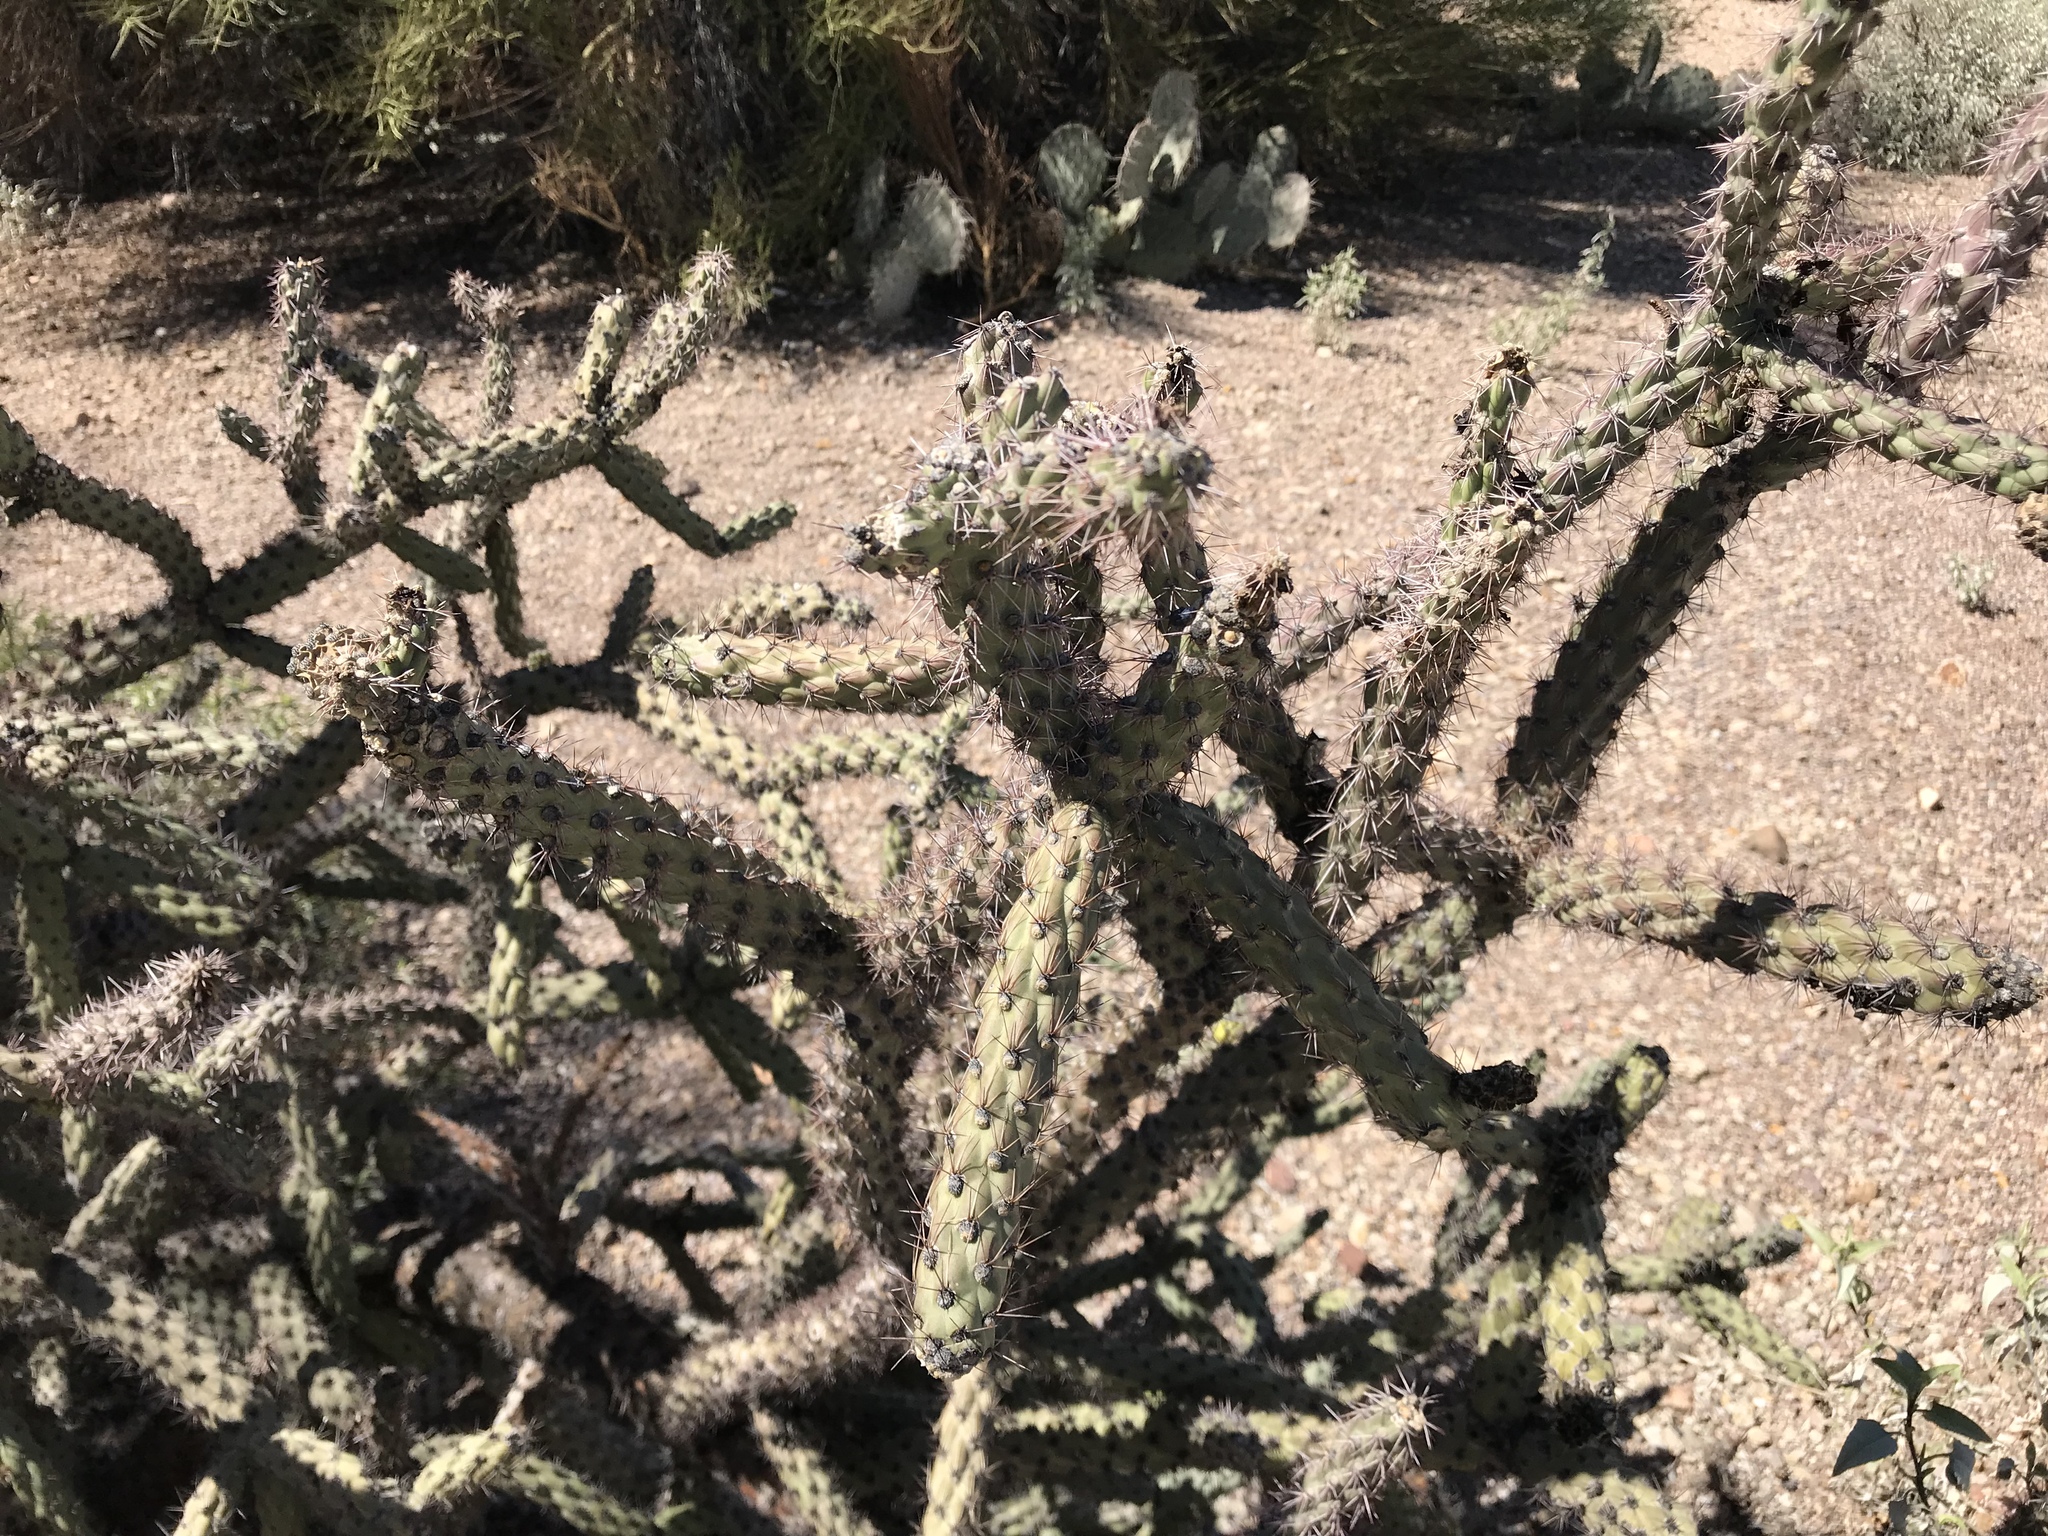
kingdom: Plantae
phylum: Tracheophyta
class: Magnoliopsida
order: Caryophyllales
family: Cactaceae
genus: Cylindropuntia
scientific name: Cylindropuntia acanthocarpa
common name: Buckhorn cholla
